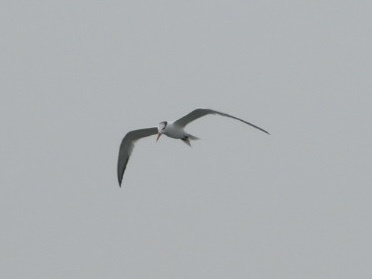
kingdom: Animalia
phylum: Chordata
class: Aves
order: Charadriiformes
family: Laridae
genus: Thalasseus
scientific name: Thalasseus maximus
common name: Royal tern
